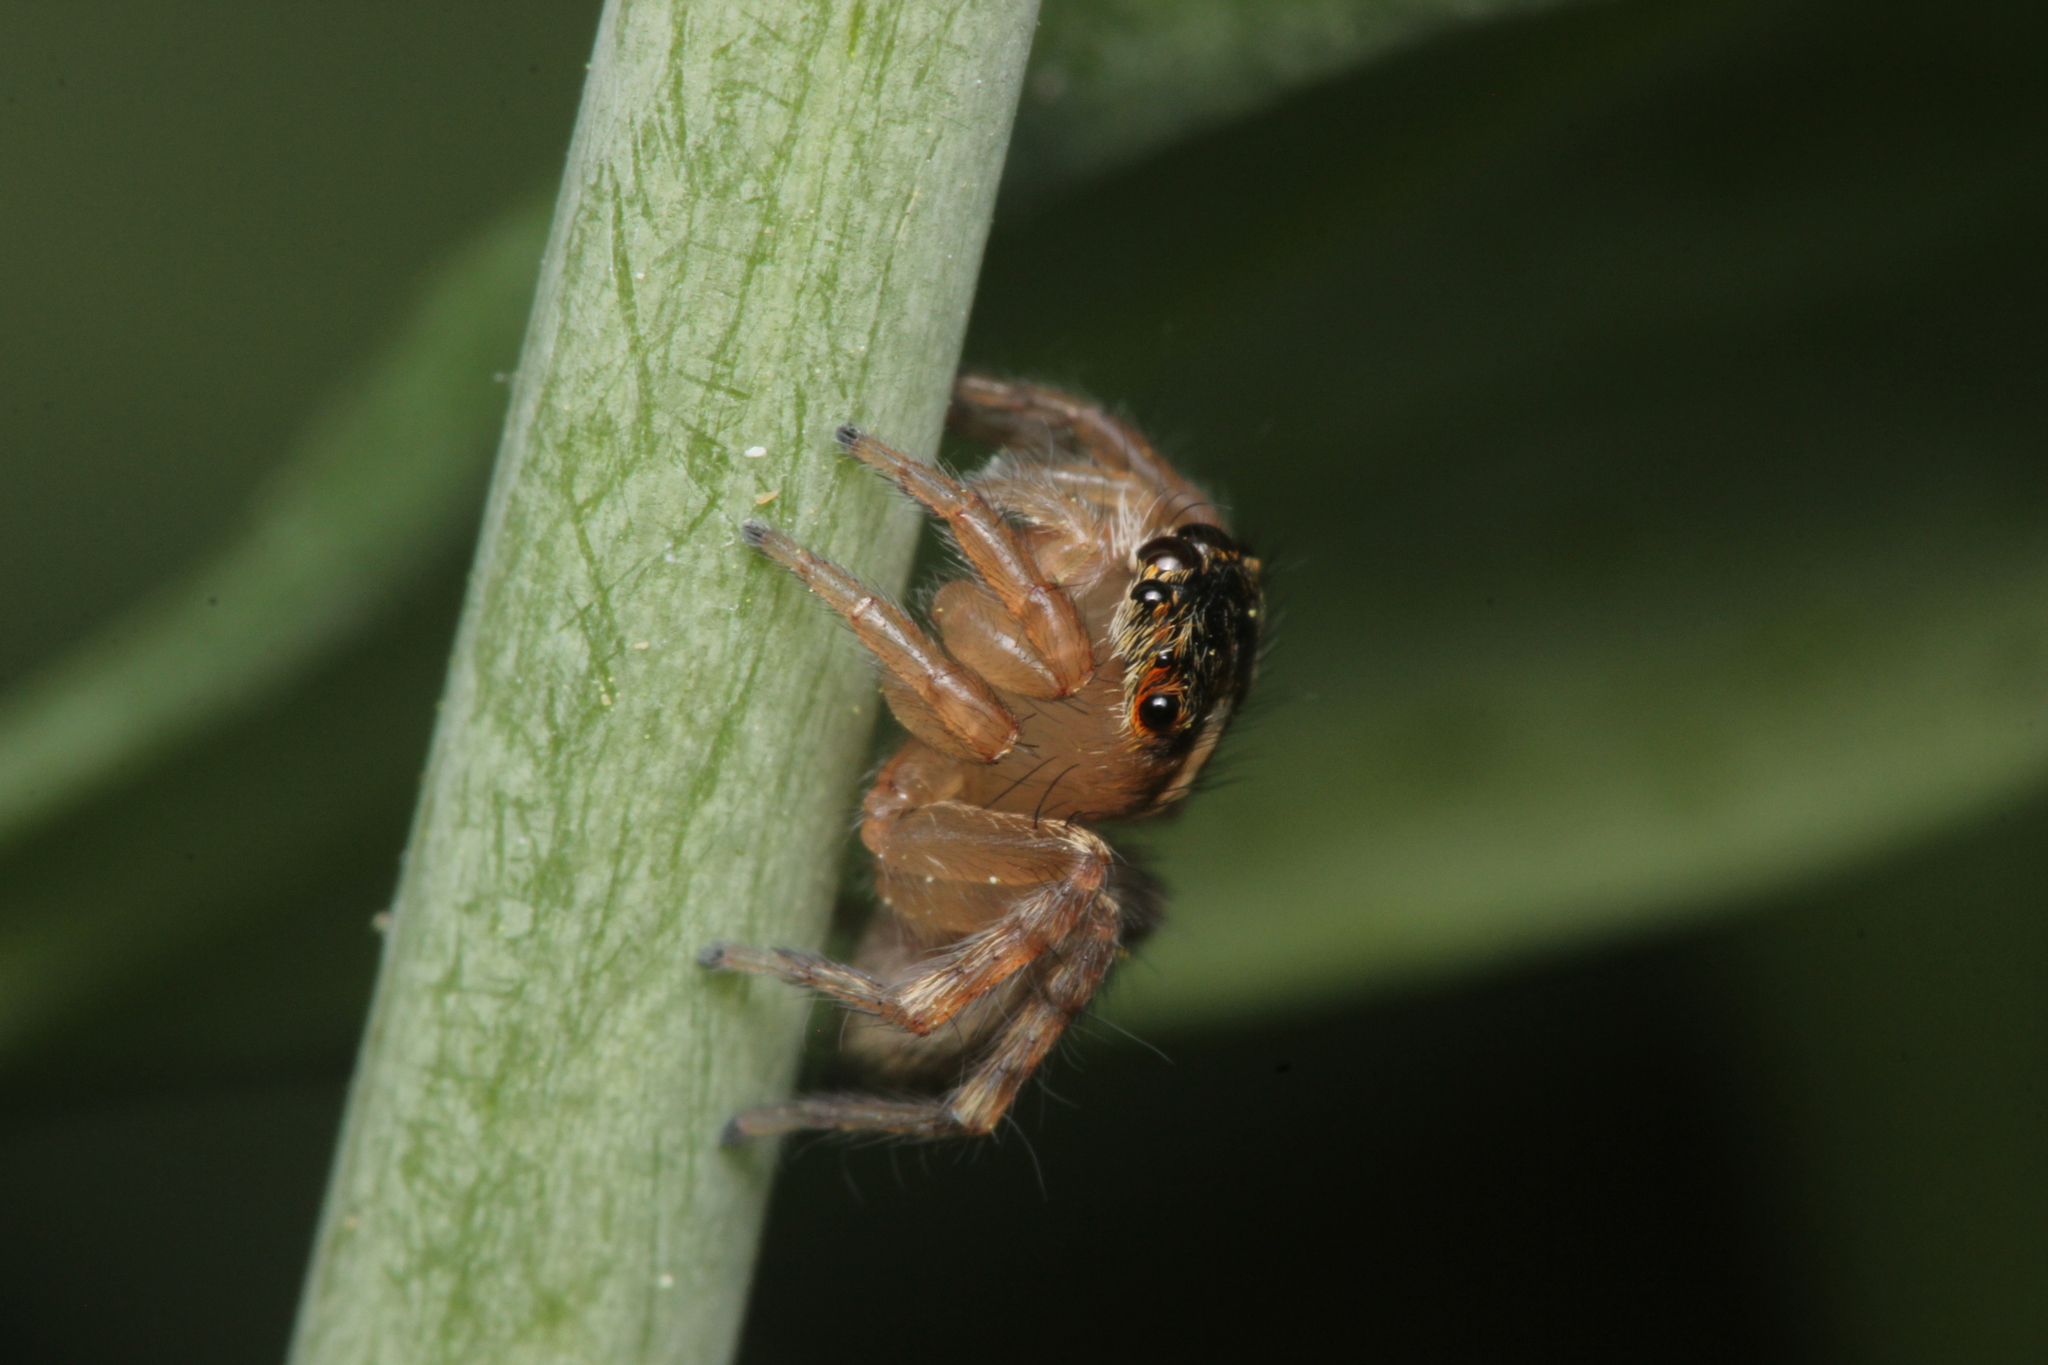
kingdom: Animalia
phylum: Arthropoda
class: Arachnida
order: Araneae
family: Salticidae
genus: Saitis
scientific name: Saitis barbipes
